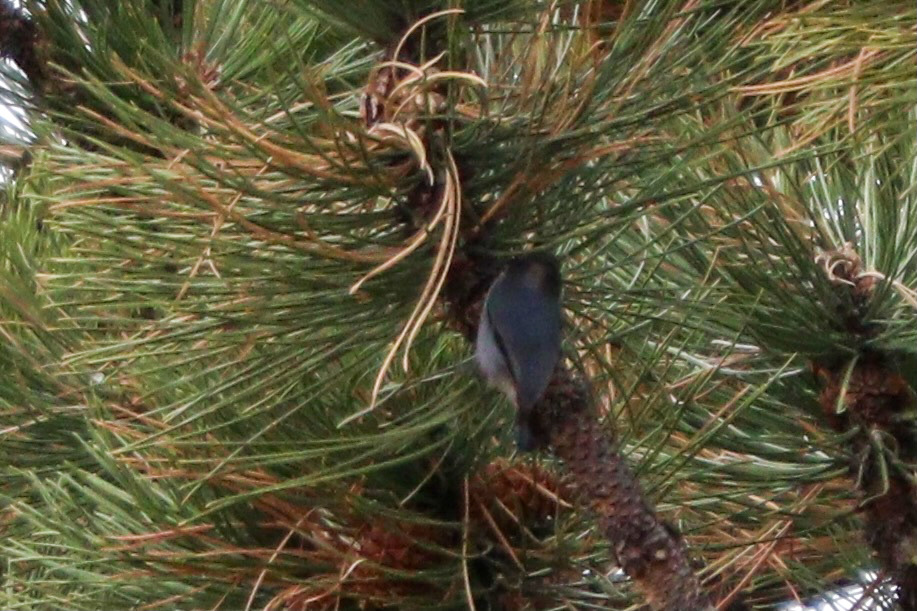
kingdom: Animalia
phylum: Chordata
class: Aves
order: Passeriformes
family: Sittidae
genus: Sitta
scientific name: Sitta pygmaea
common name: Pygmy nuthatch
